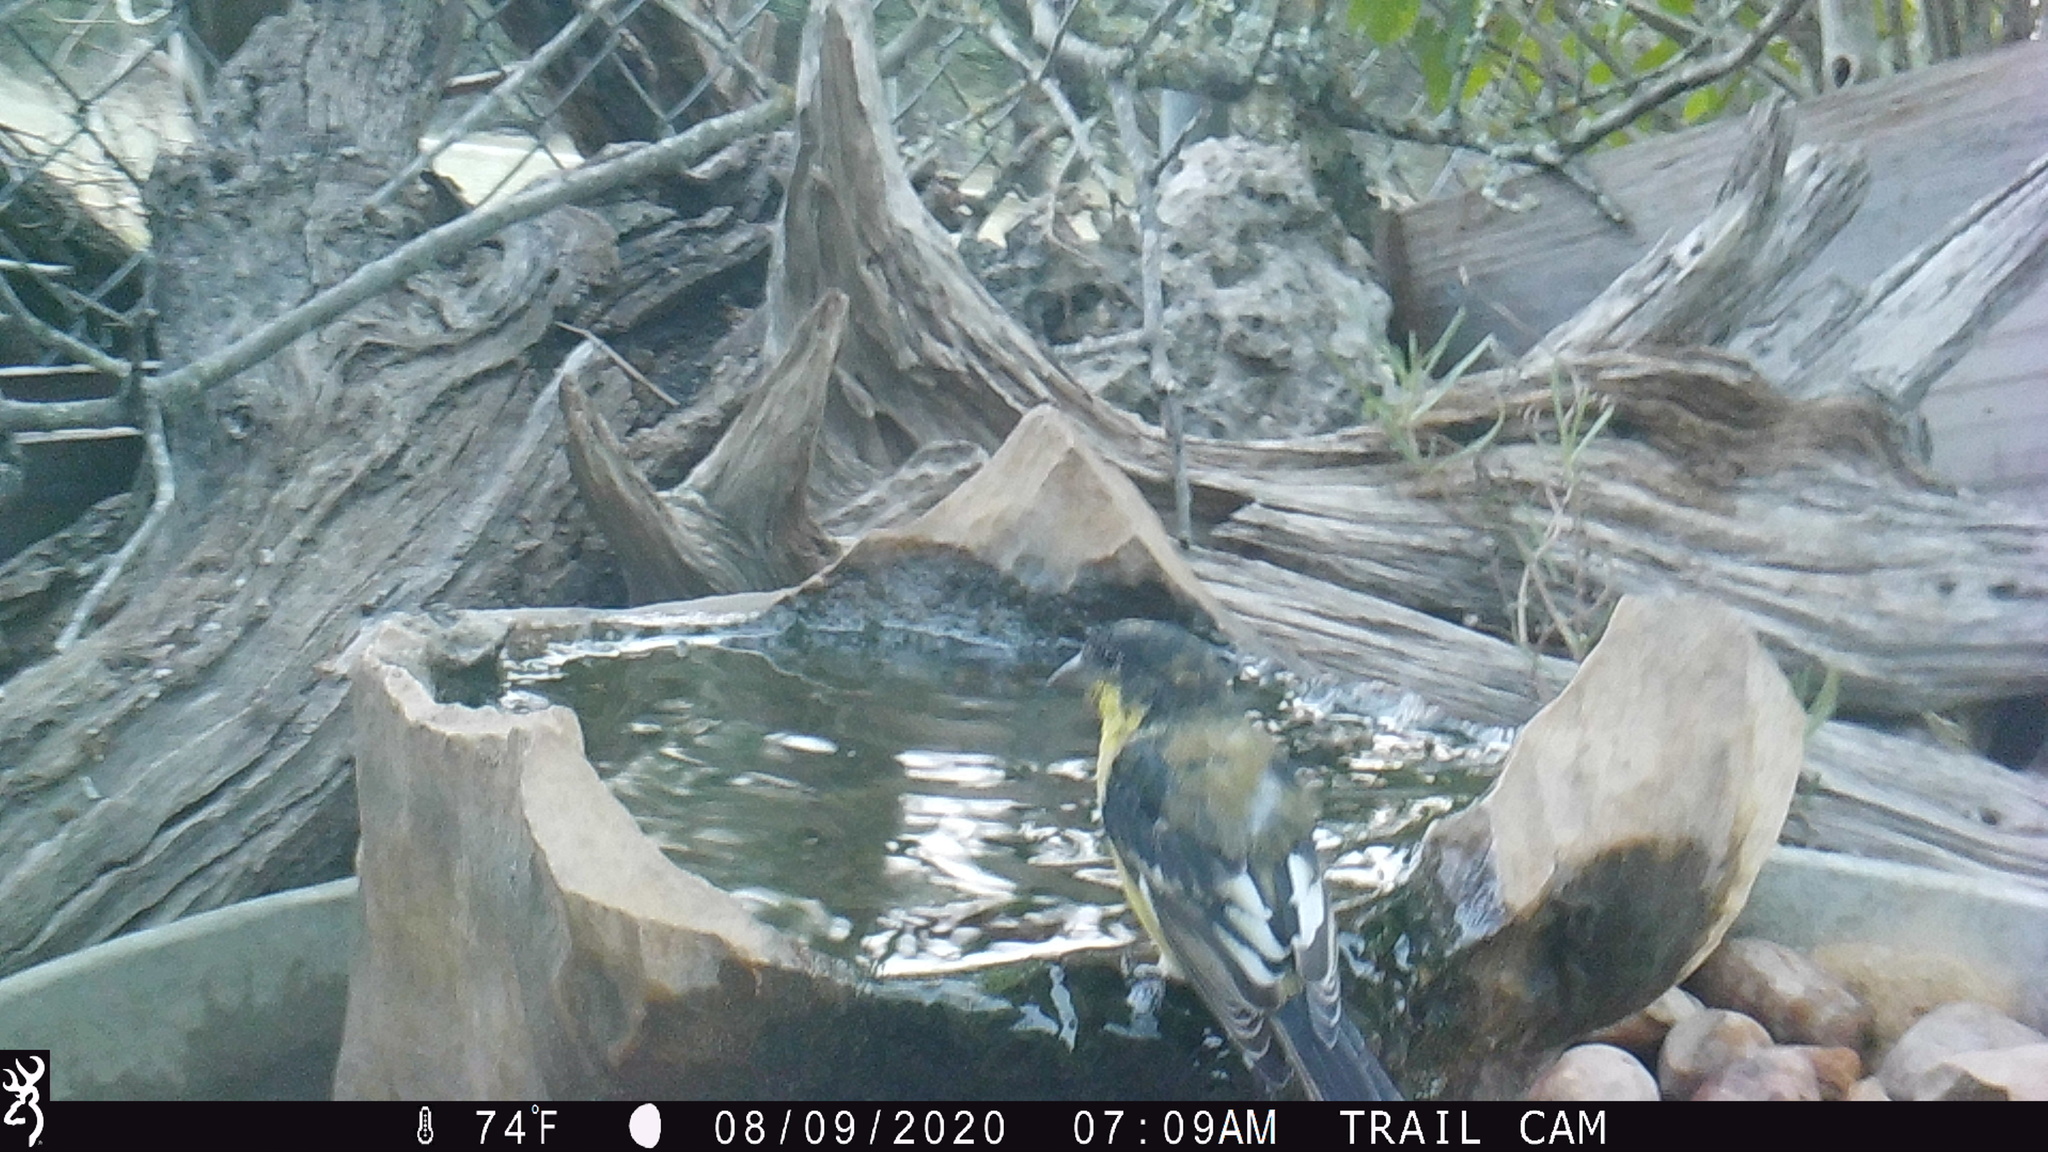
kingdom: Animalia
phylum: Chordata
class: Aves
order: Passeriformes
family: Fringillidae
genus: Spinus
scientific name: Spinus psaltria
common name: Lesser goldfinch
